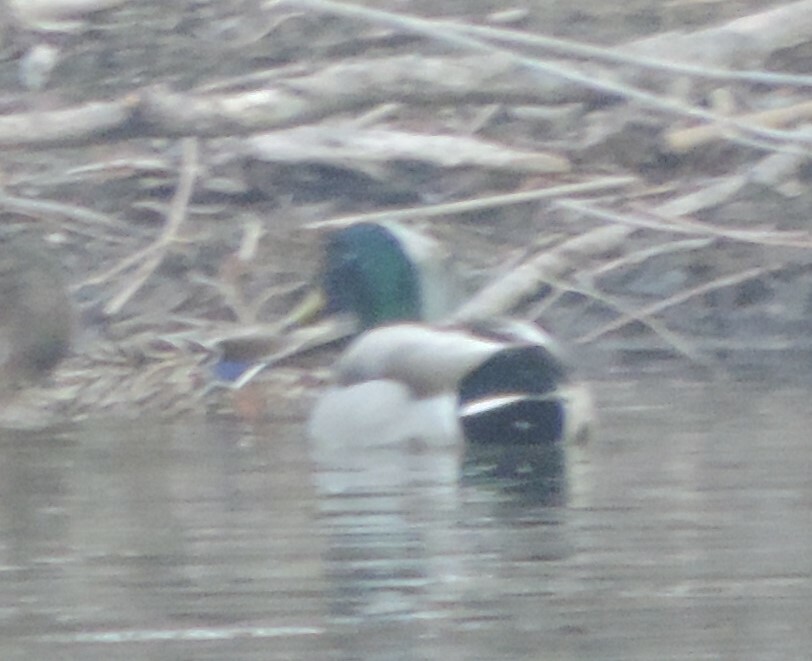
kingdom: Animalia
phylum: Chordata
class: Aves
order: Anseriformes
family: Anatidae
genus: Anas
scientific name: Anas platyrhynchos
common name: Mallard
